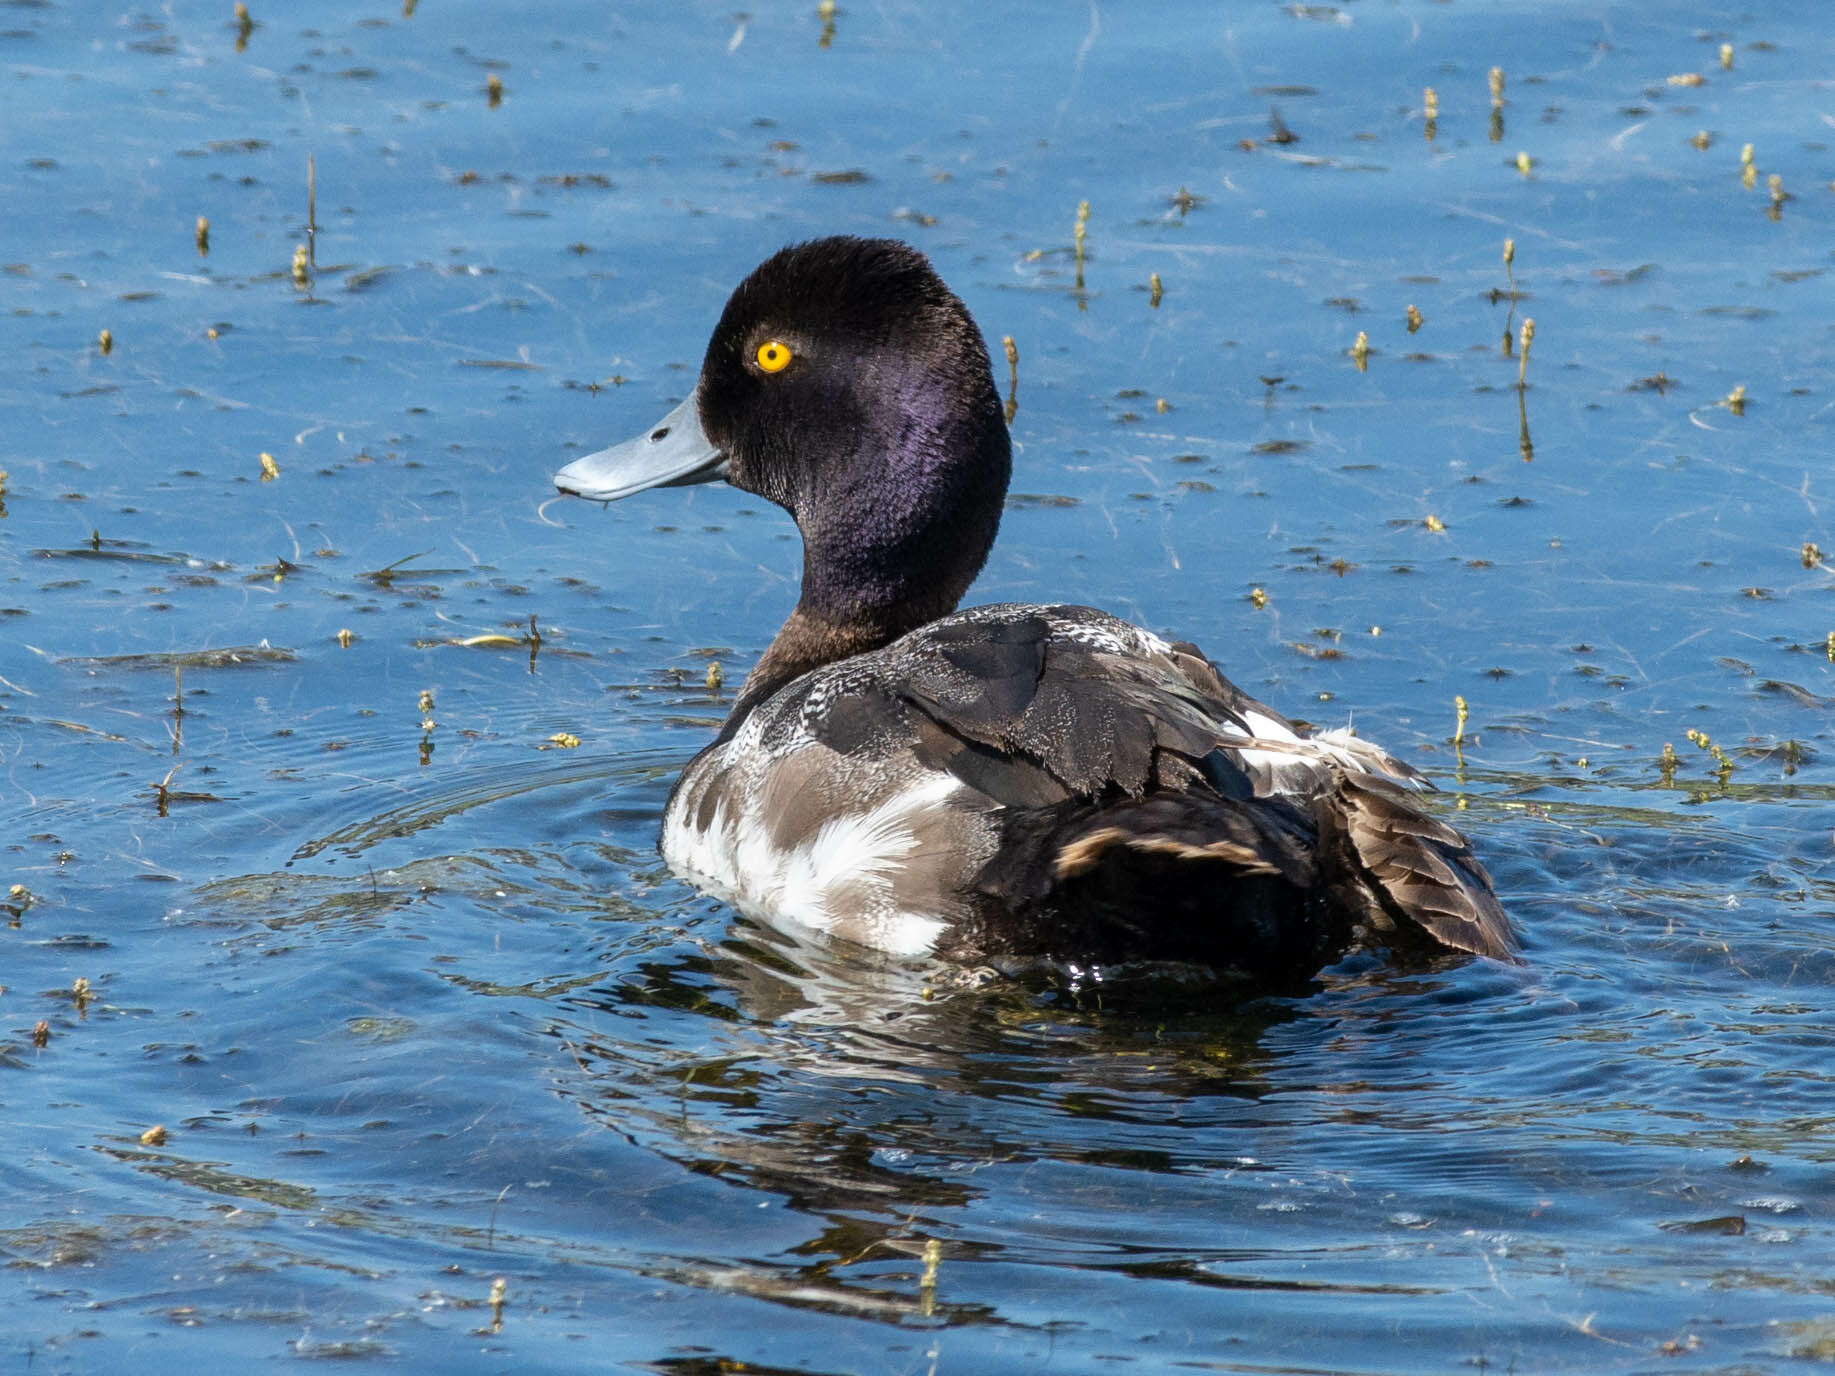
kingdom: Animalia
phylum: Chordata
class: Aves
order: Anseriformes
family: Anatidae
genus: Aythya
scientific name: Aythya affinis
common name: Lesser scaup
